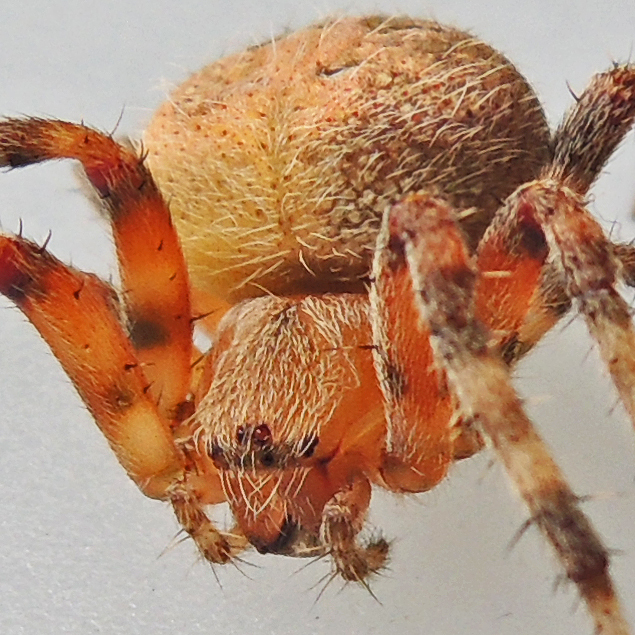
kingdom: Animalia
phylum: Arthropoda
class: Arachnida
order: Araneae
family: Araneidae
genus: Neoscona
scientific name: Neoscona crucifera
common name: Spotted orbweaver
